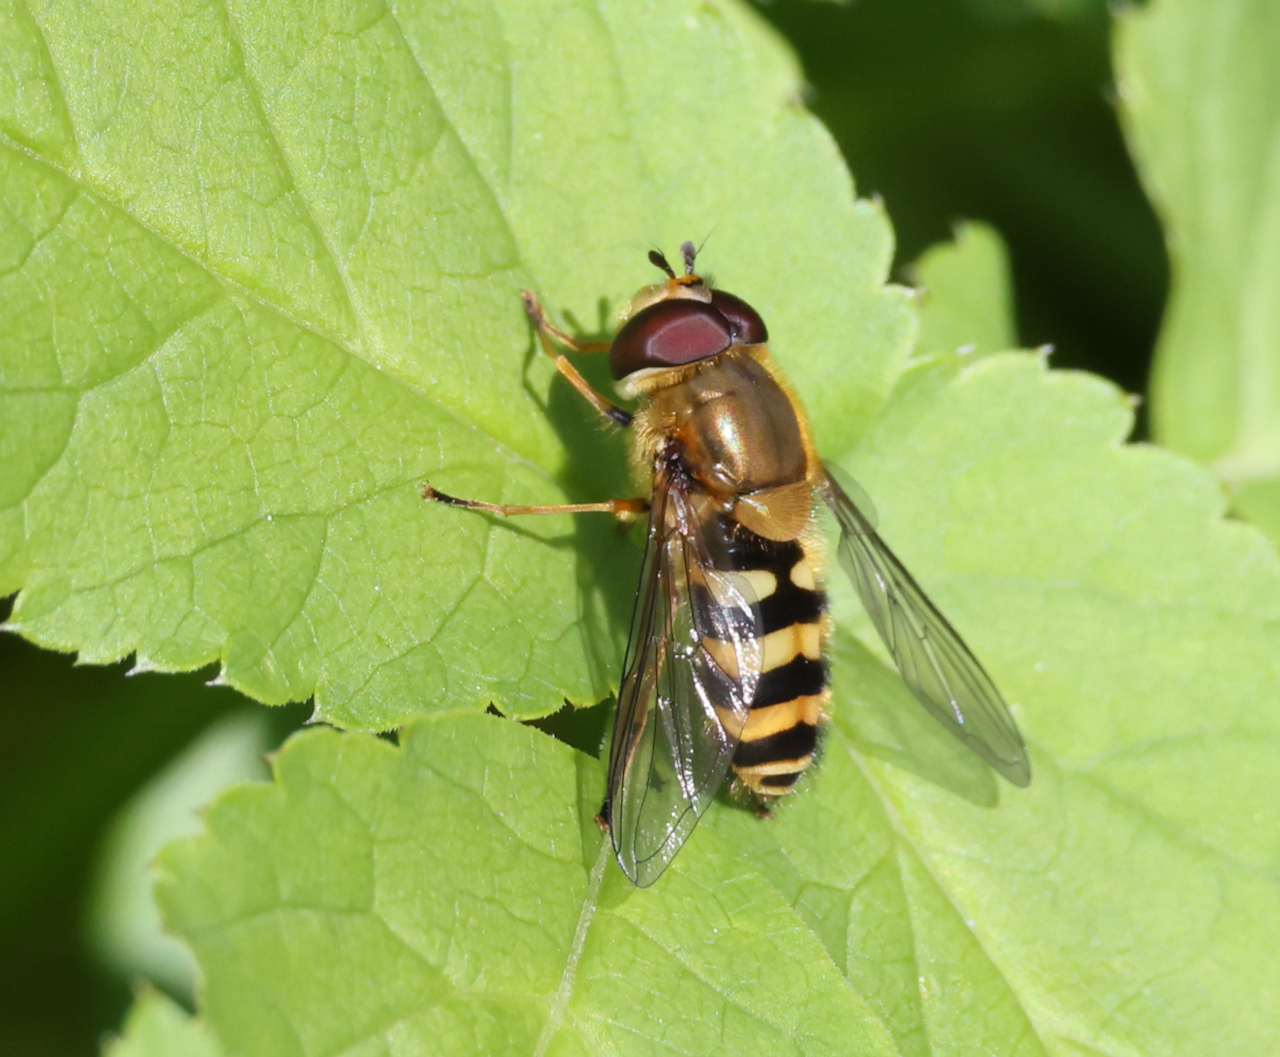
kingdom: Animalia
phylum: Arthropoda
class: Insecta
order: Diptera
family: Syrphidae
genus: Syrphus
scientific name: Syrphus
